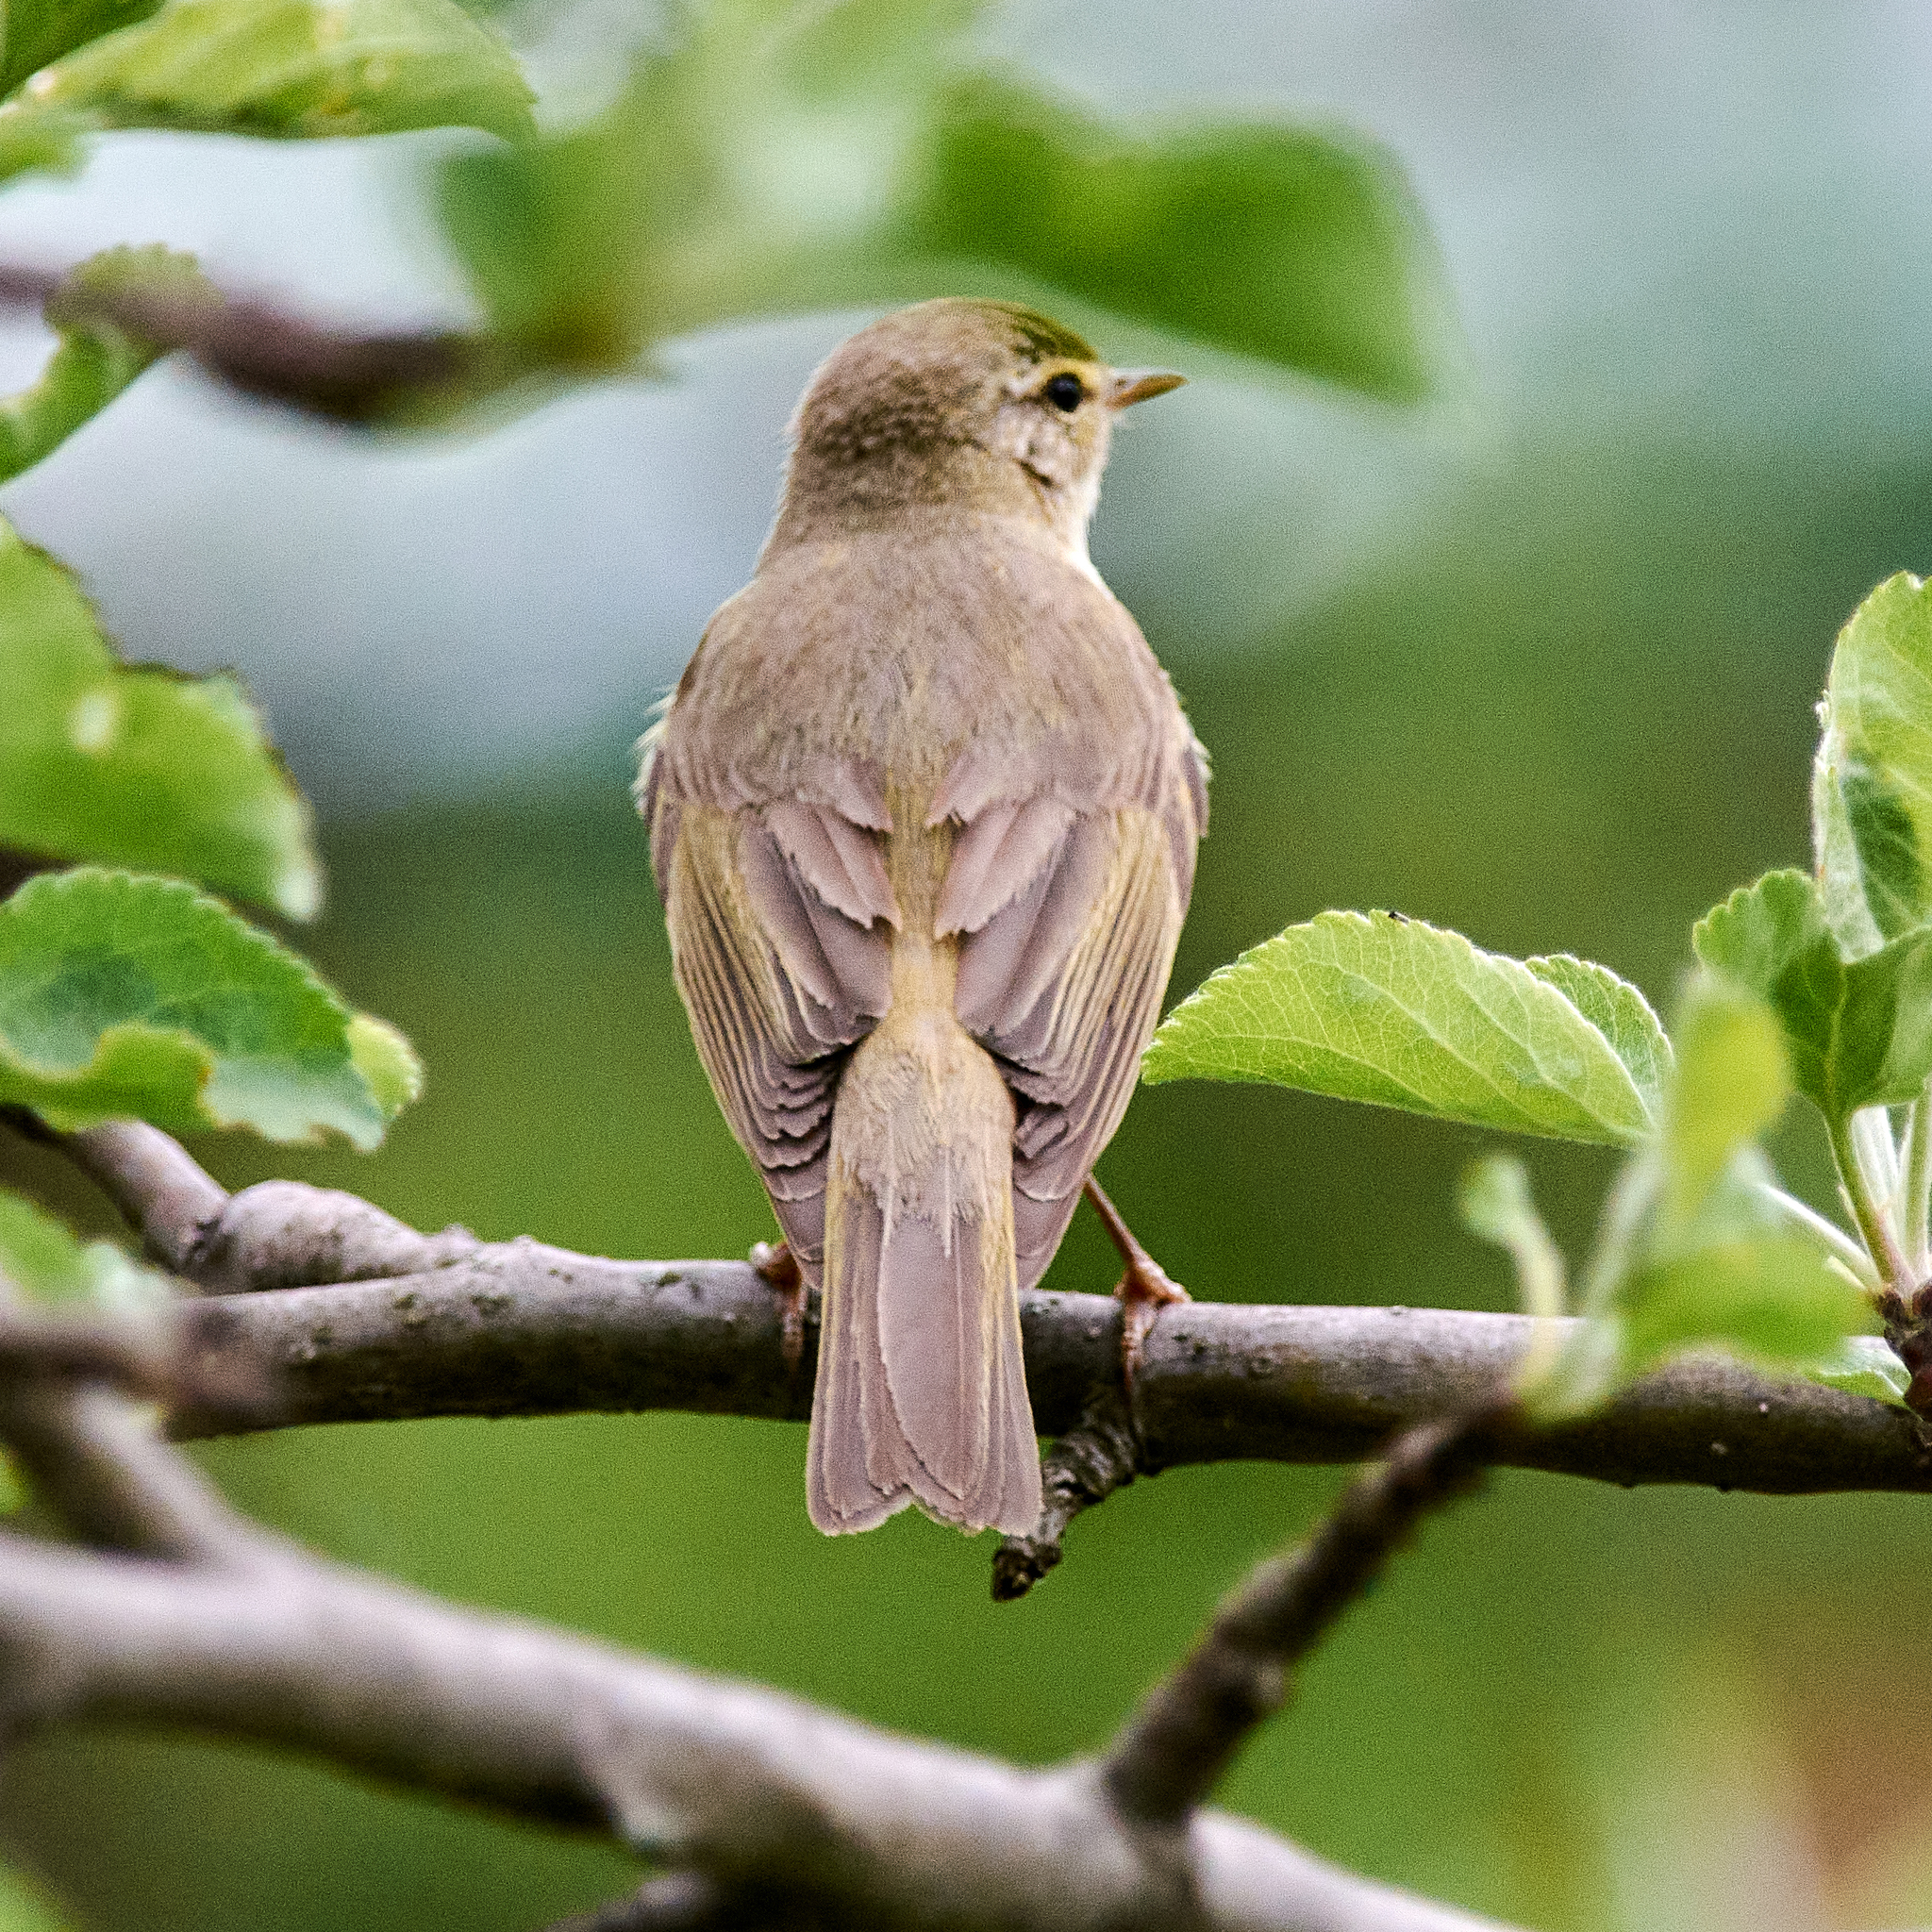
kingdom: Animalia
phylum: Chordata
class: Aves
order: Passeriformes
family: Phylloscopidae
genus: Phylloscopus
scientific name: Phylloscopus trochilus
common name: Willow warbler
